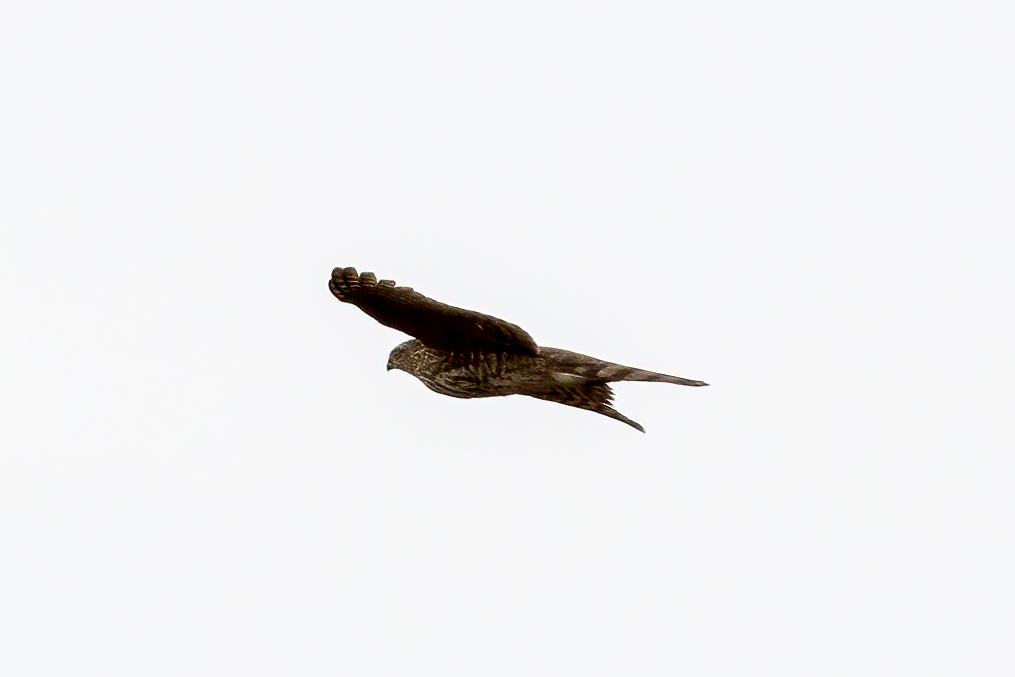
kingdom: Animalia
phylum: Chordata
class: Aves
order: Accipitriformes
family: Accipitridae
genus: Accipiter
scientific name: Accipiter striatus
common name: Sharp-shinned hawk
